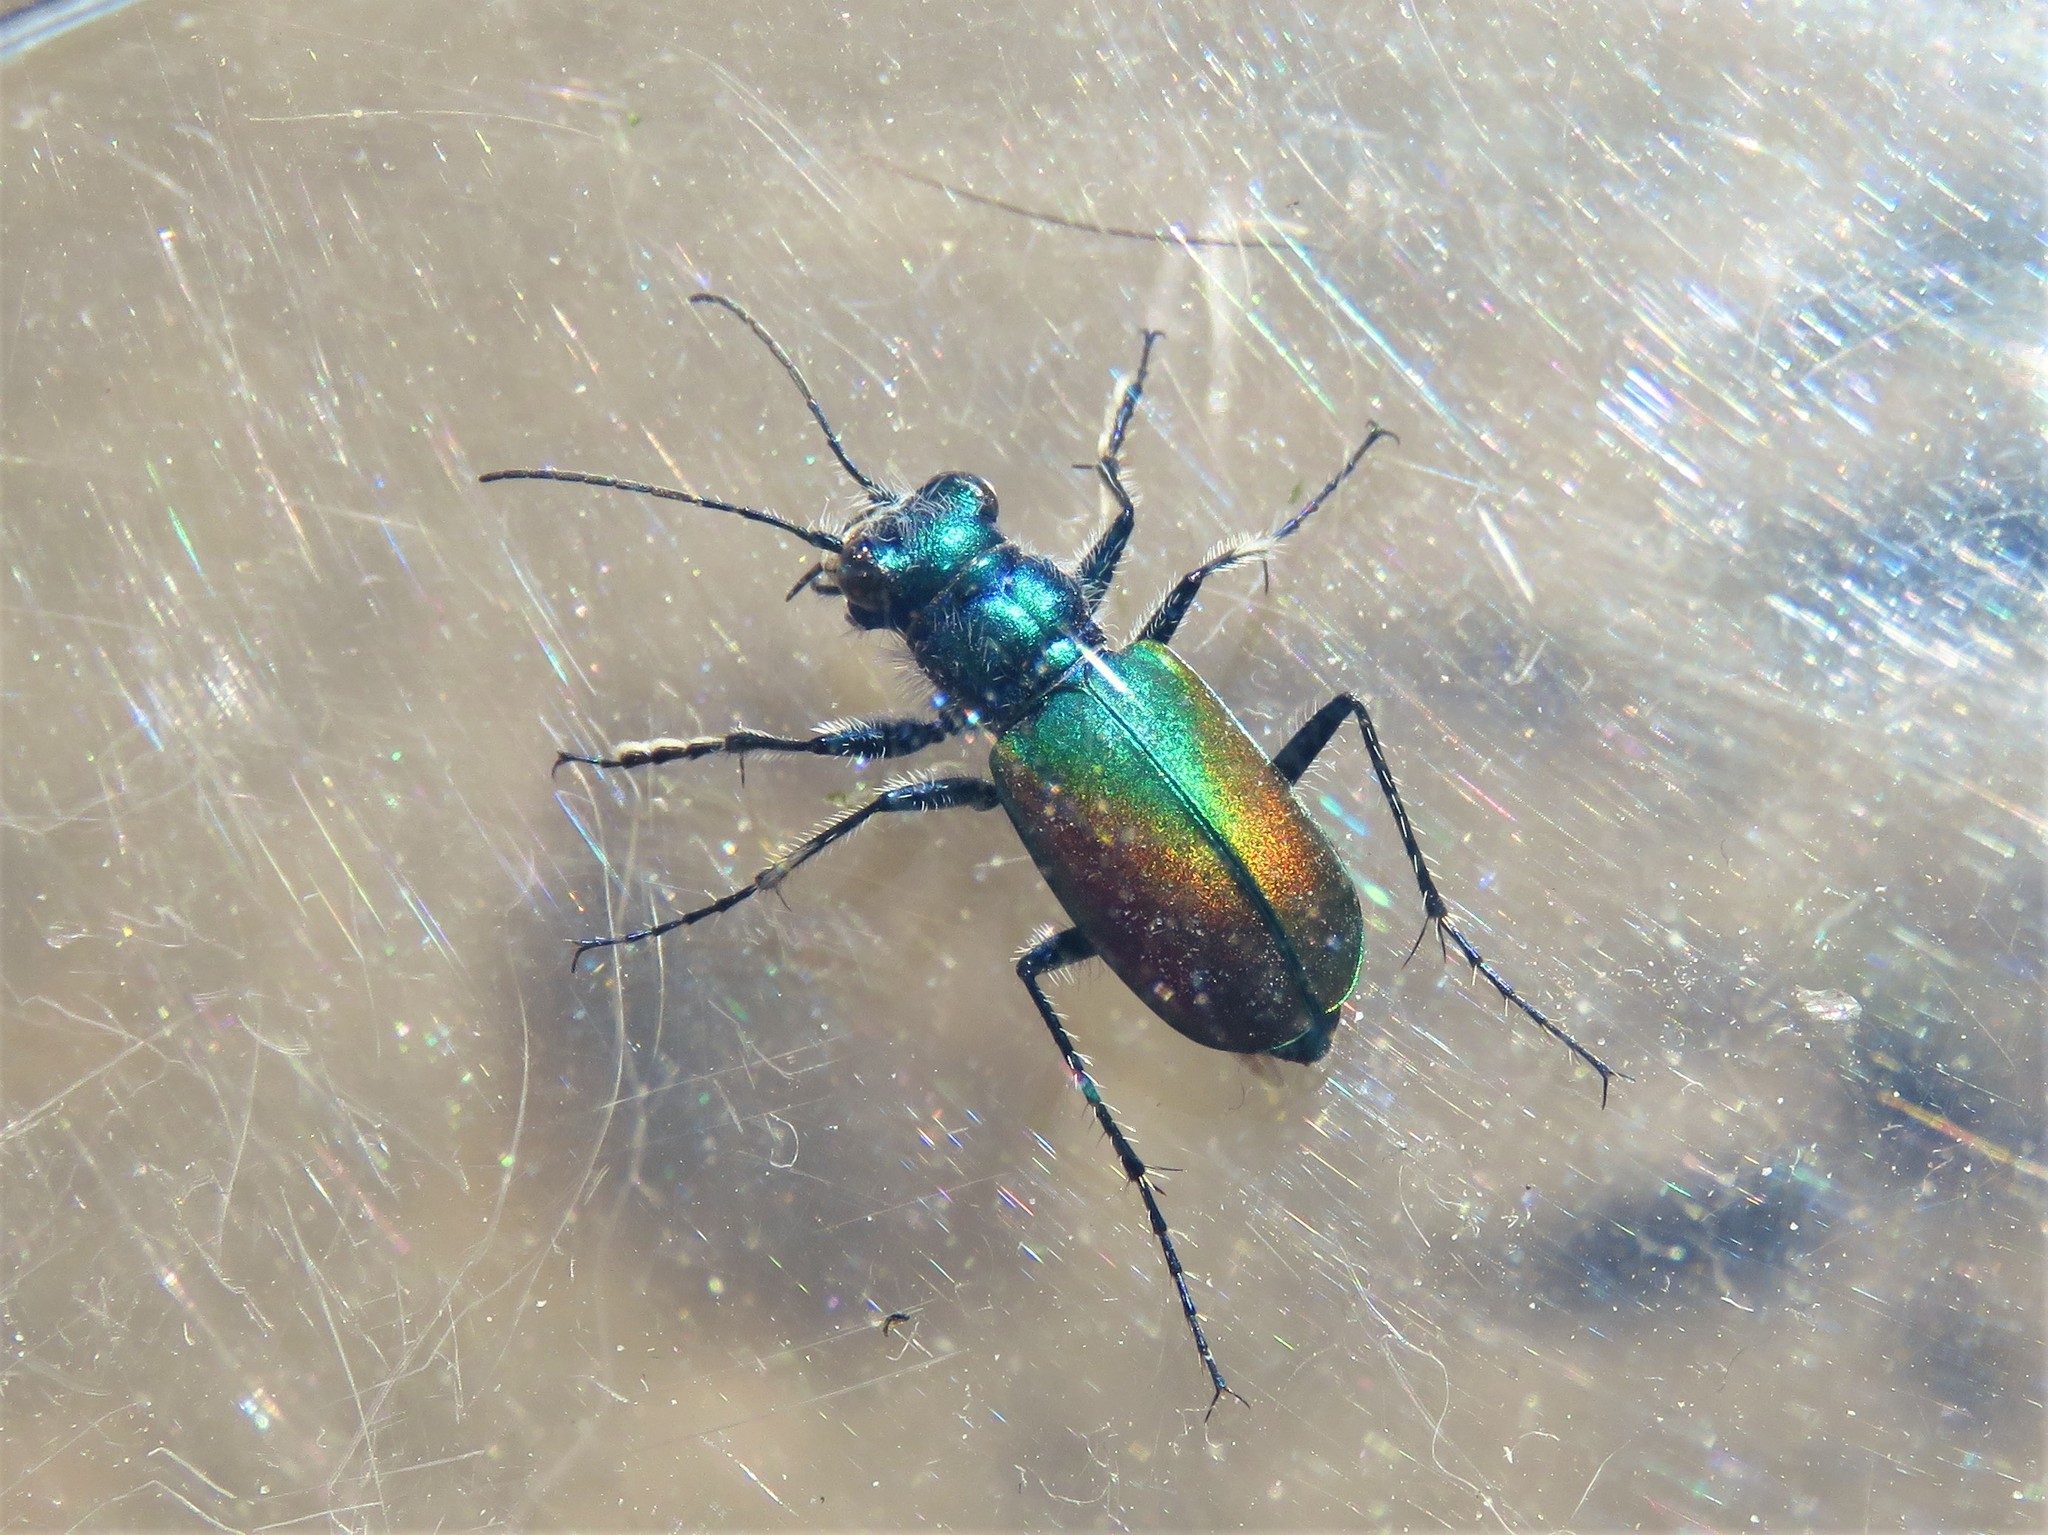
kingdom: Animalia
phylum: Arthropoda
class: Insecta
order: Coleoptera
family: Carabidae
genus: Cicindela
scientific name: Cicindela scutellaris
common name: Festive tiger beetle
